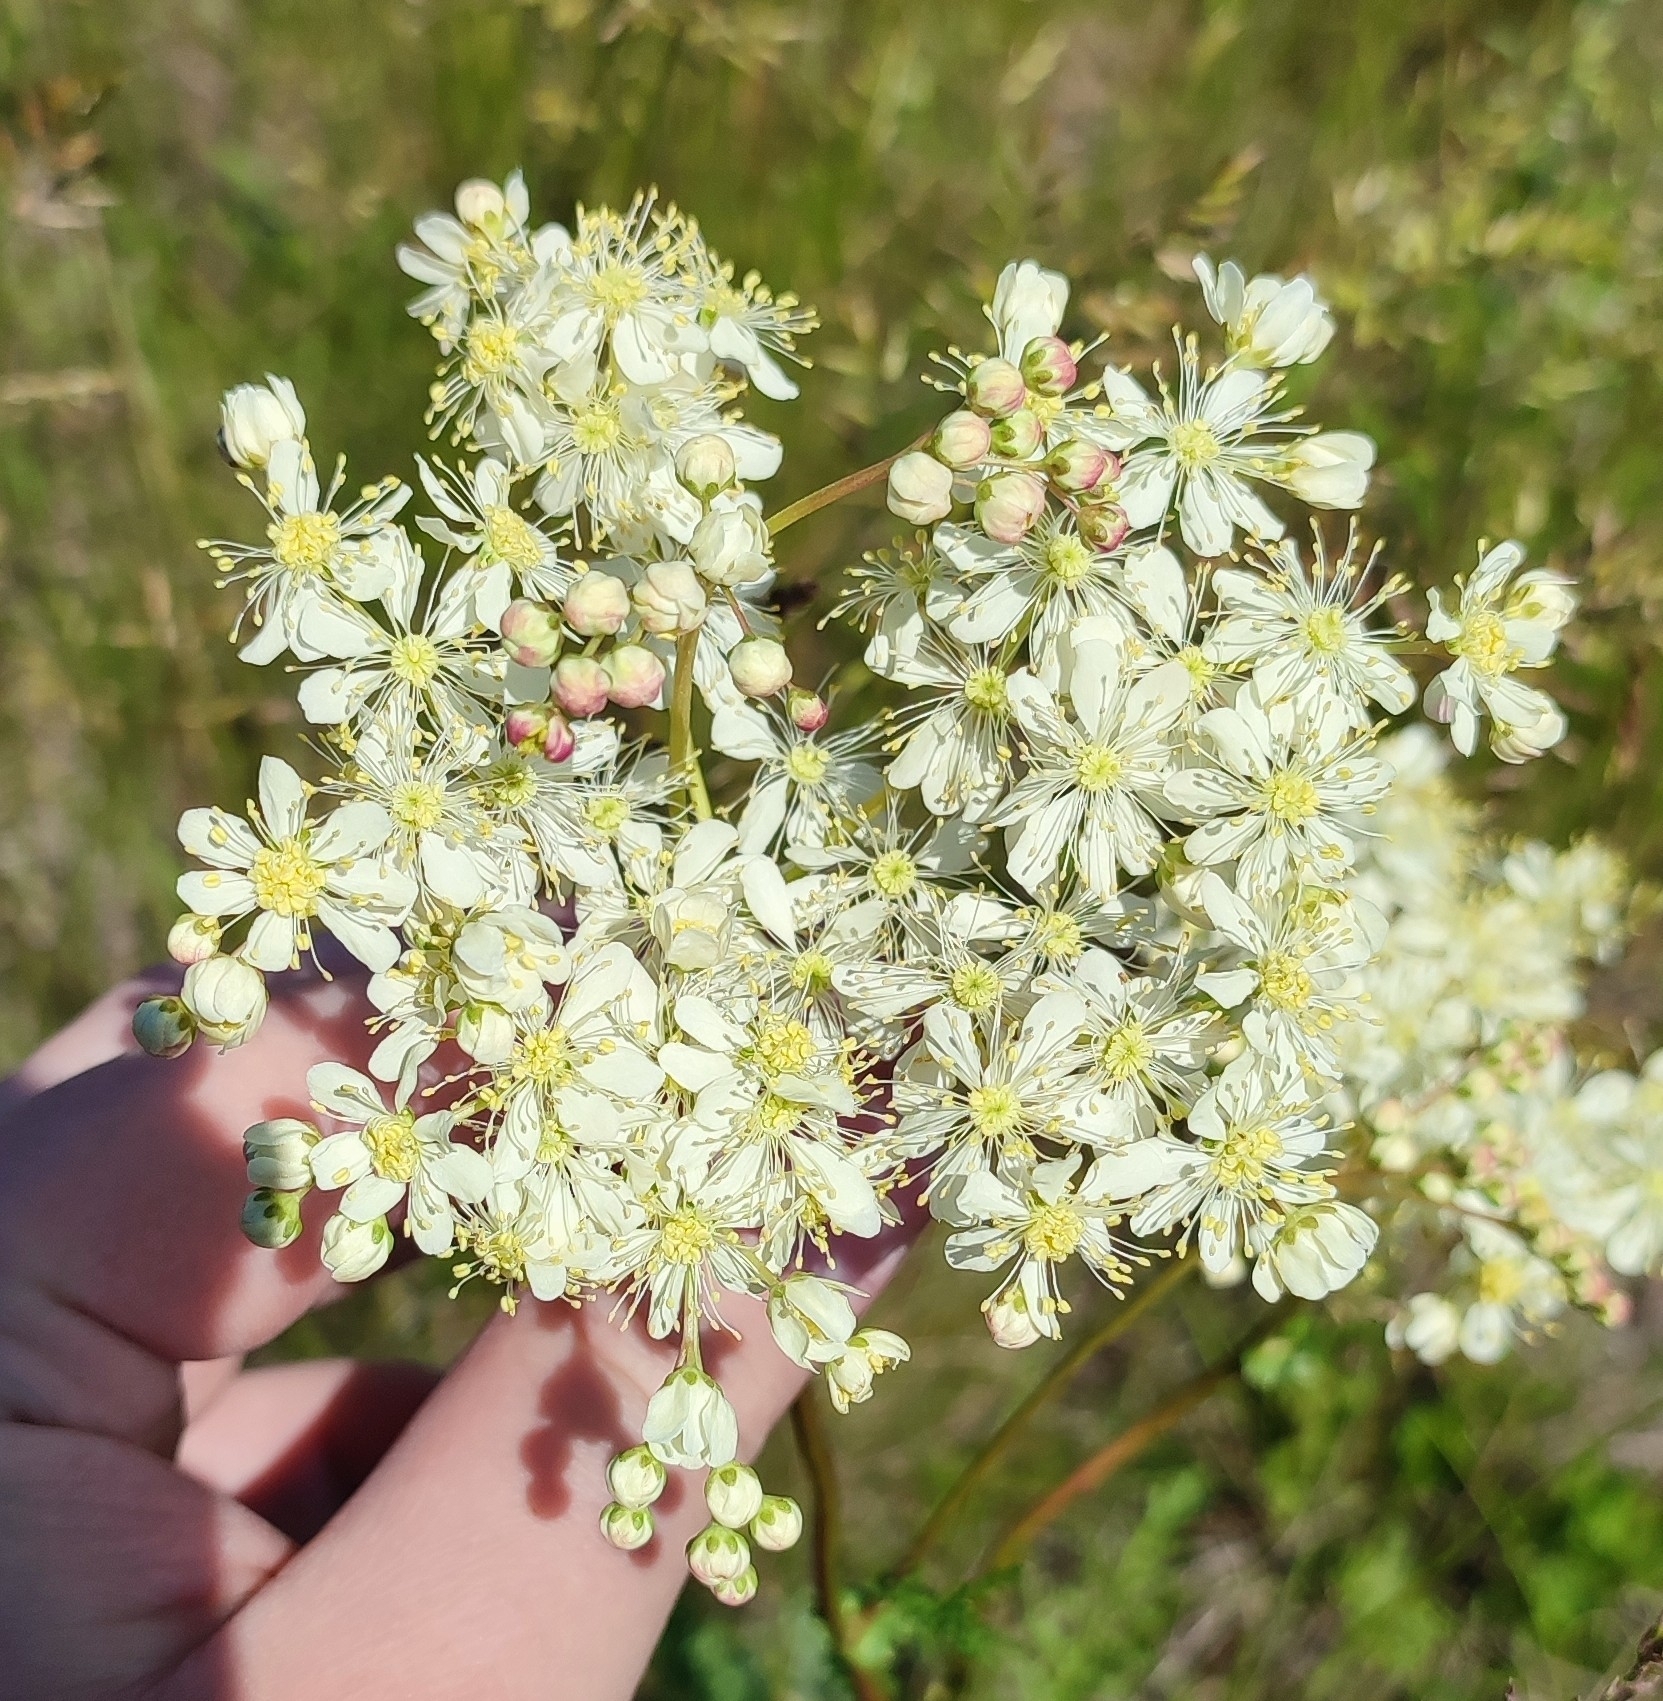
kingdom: Plantae
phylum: Tracheophyta
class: Magnoliopsida
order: Rosales
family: Rosaceae
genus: Filipendula
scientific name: Filipendula vulgaris
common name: Dropwort
